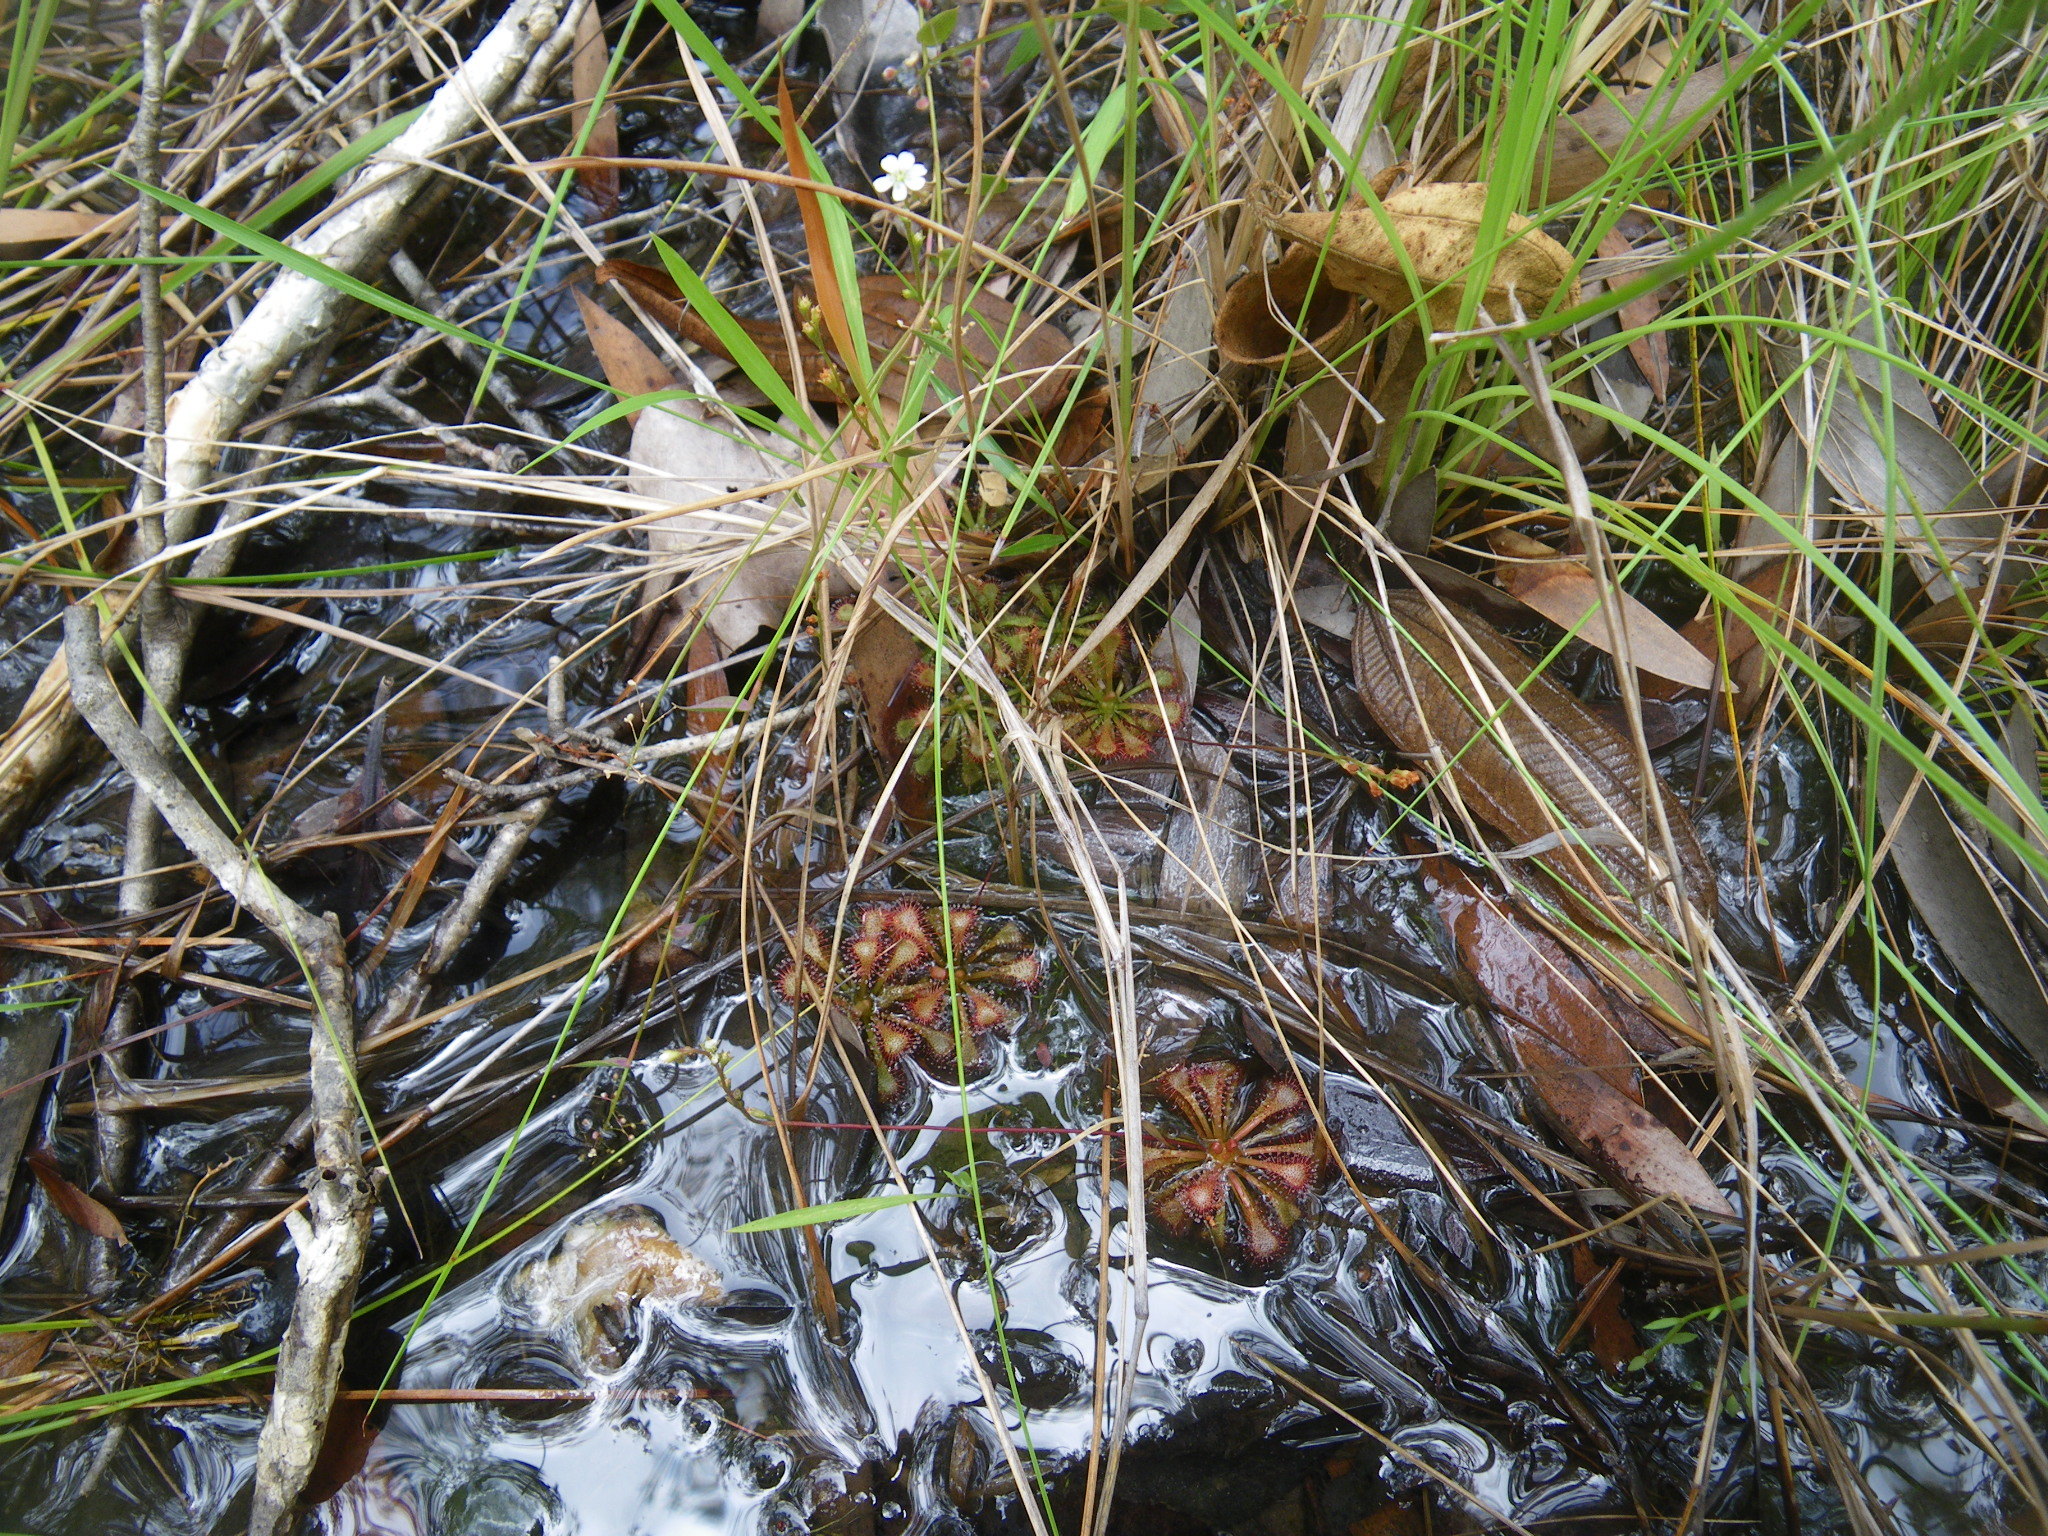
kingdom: Plantae
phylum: Tracheophyta
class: Magnoliopsida
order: Caryophyllales
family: Droseraceae
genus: Drosera
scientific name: Drosera spatulata
